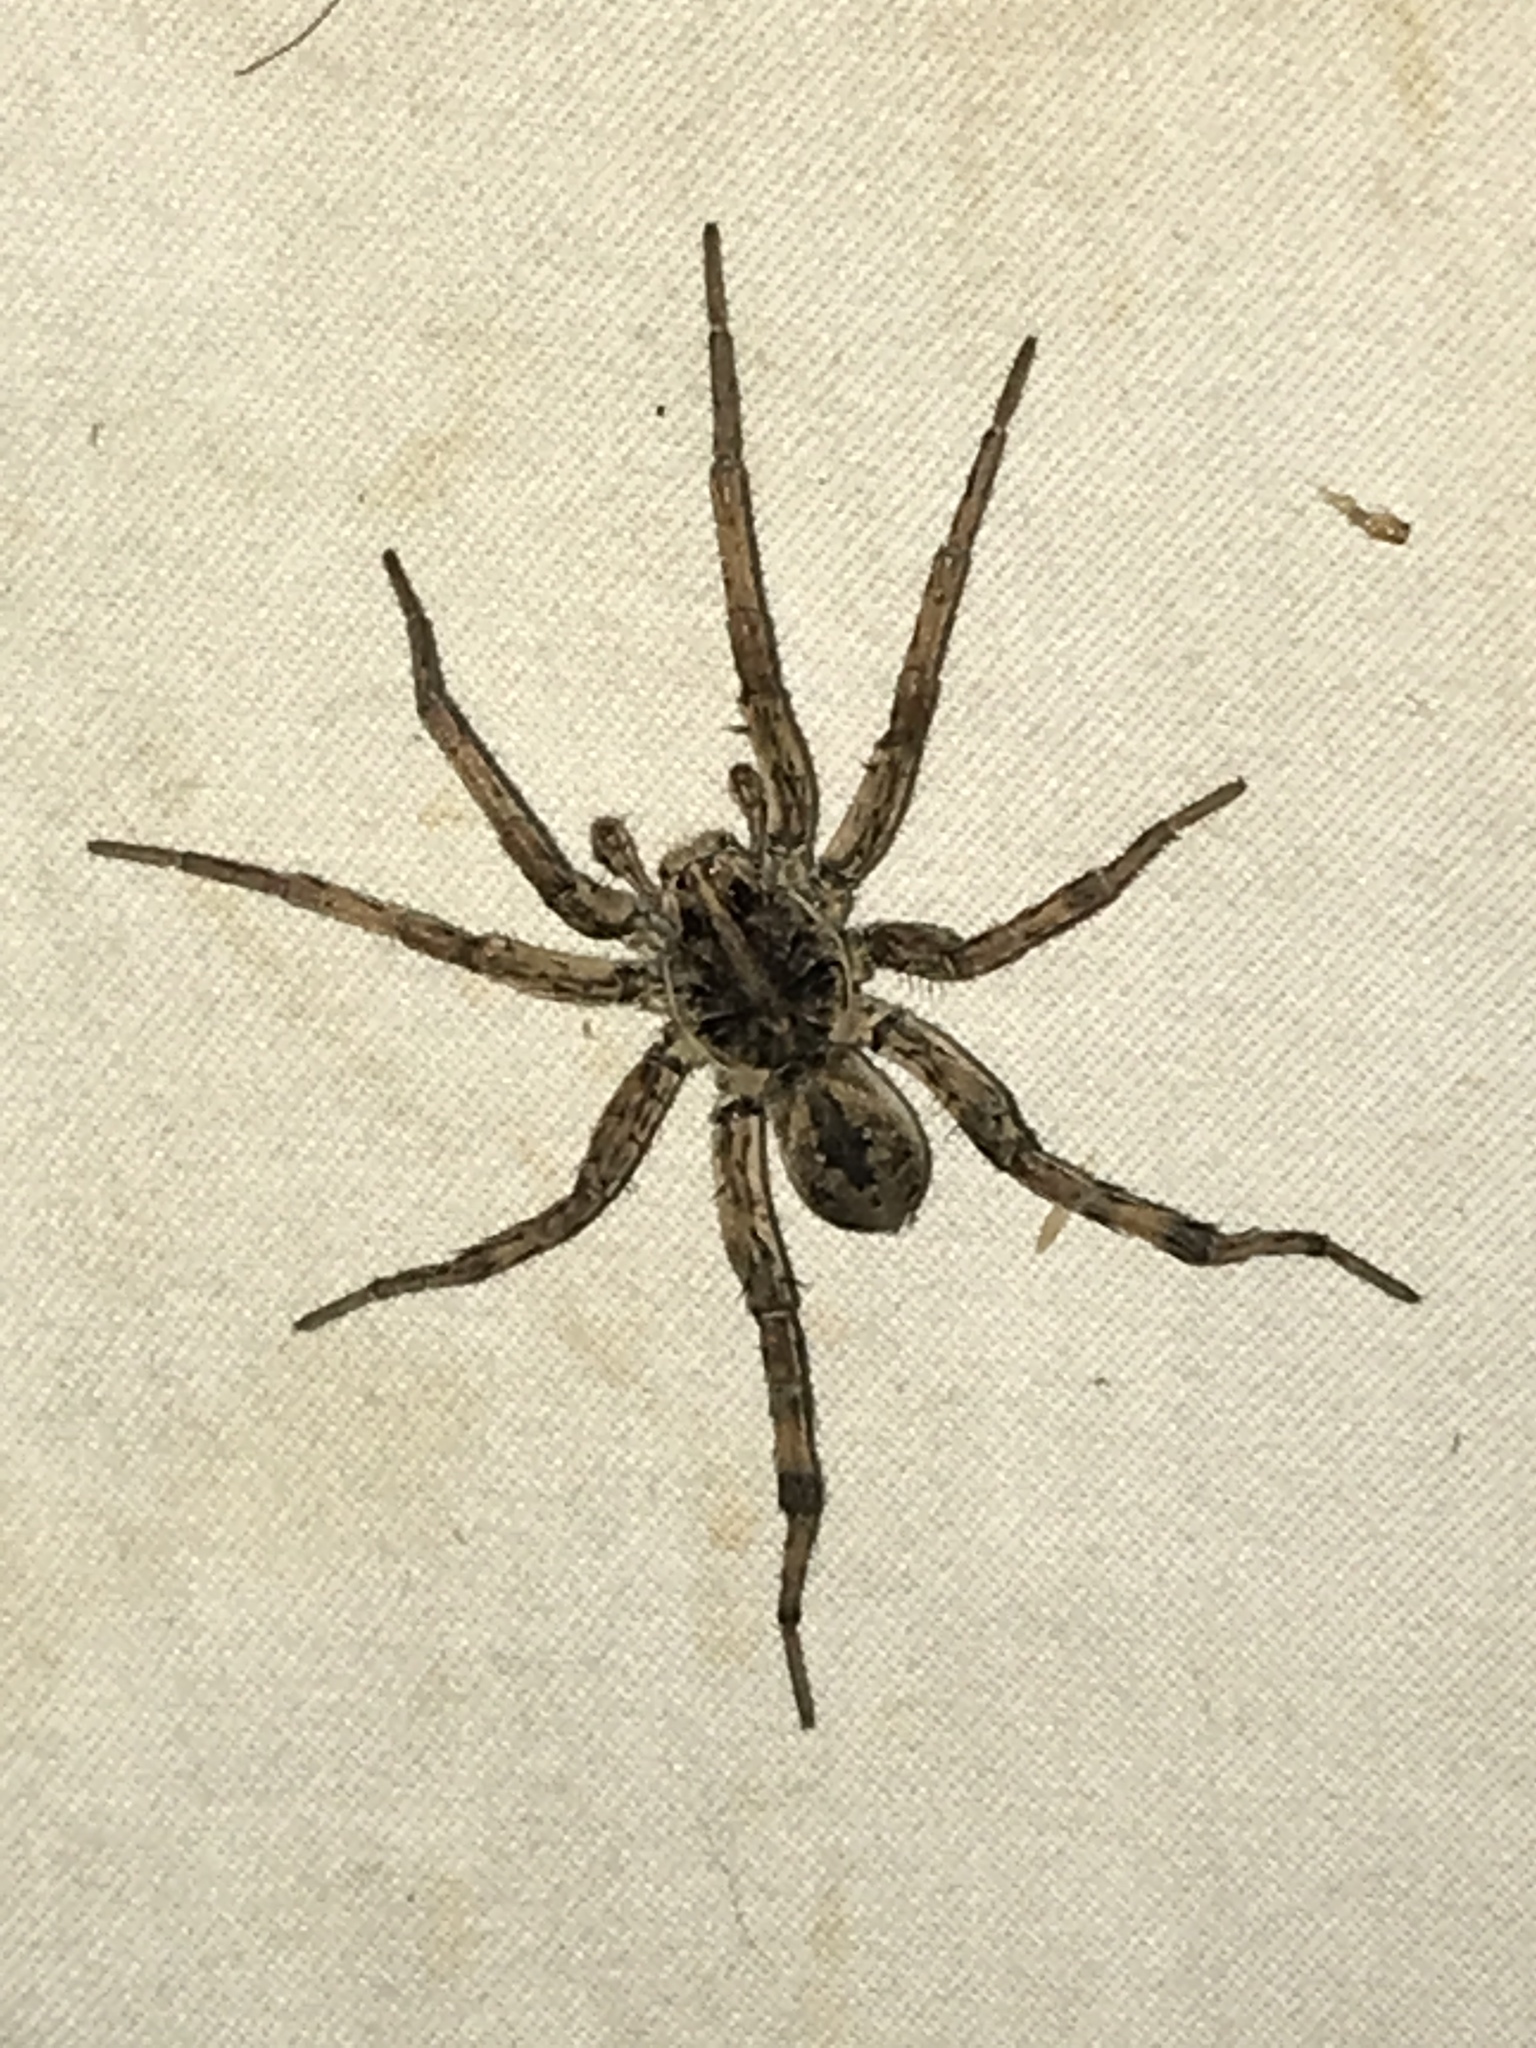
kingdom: Animalia
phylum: Arthropoda
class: Arachnida
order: Araneae
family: Lycosidae
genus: Tigrosa
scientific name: Tigrosa helluo
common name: Wetland giant wolf spider
